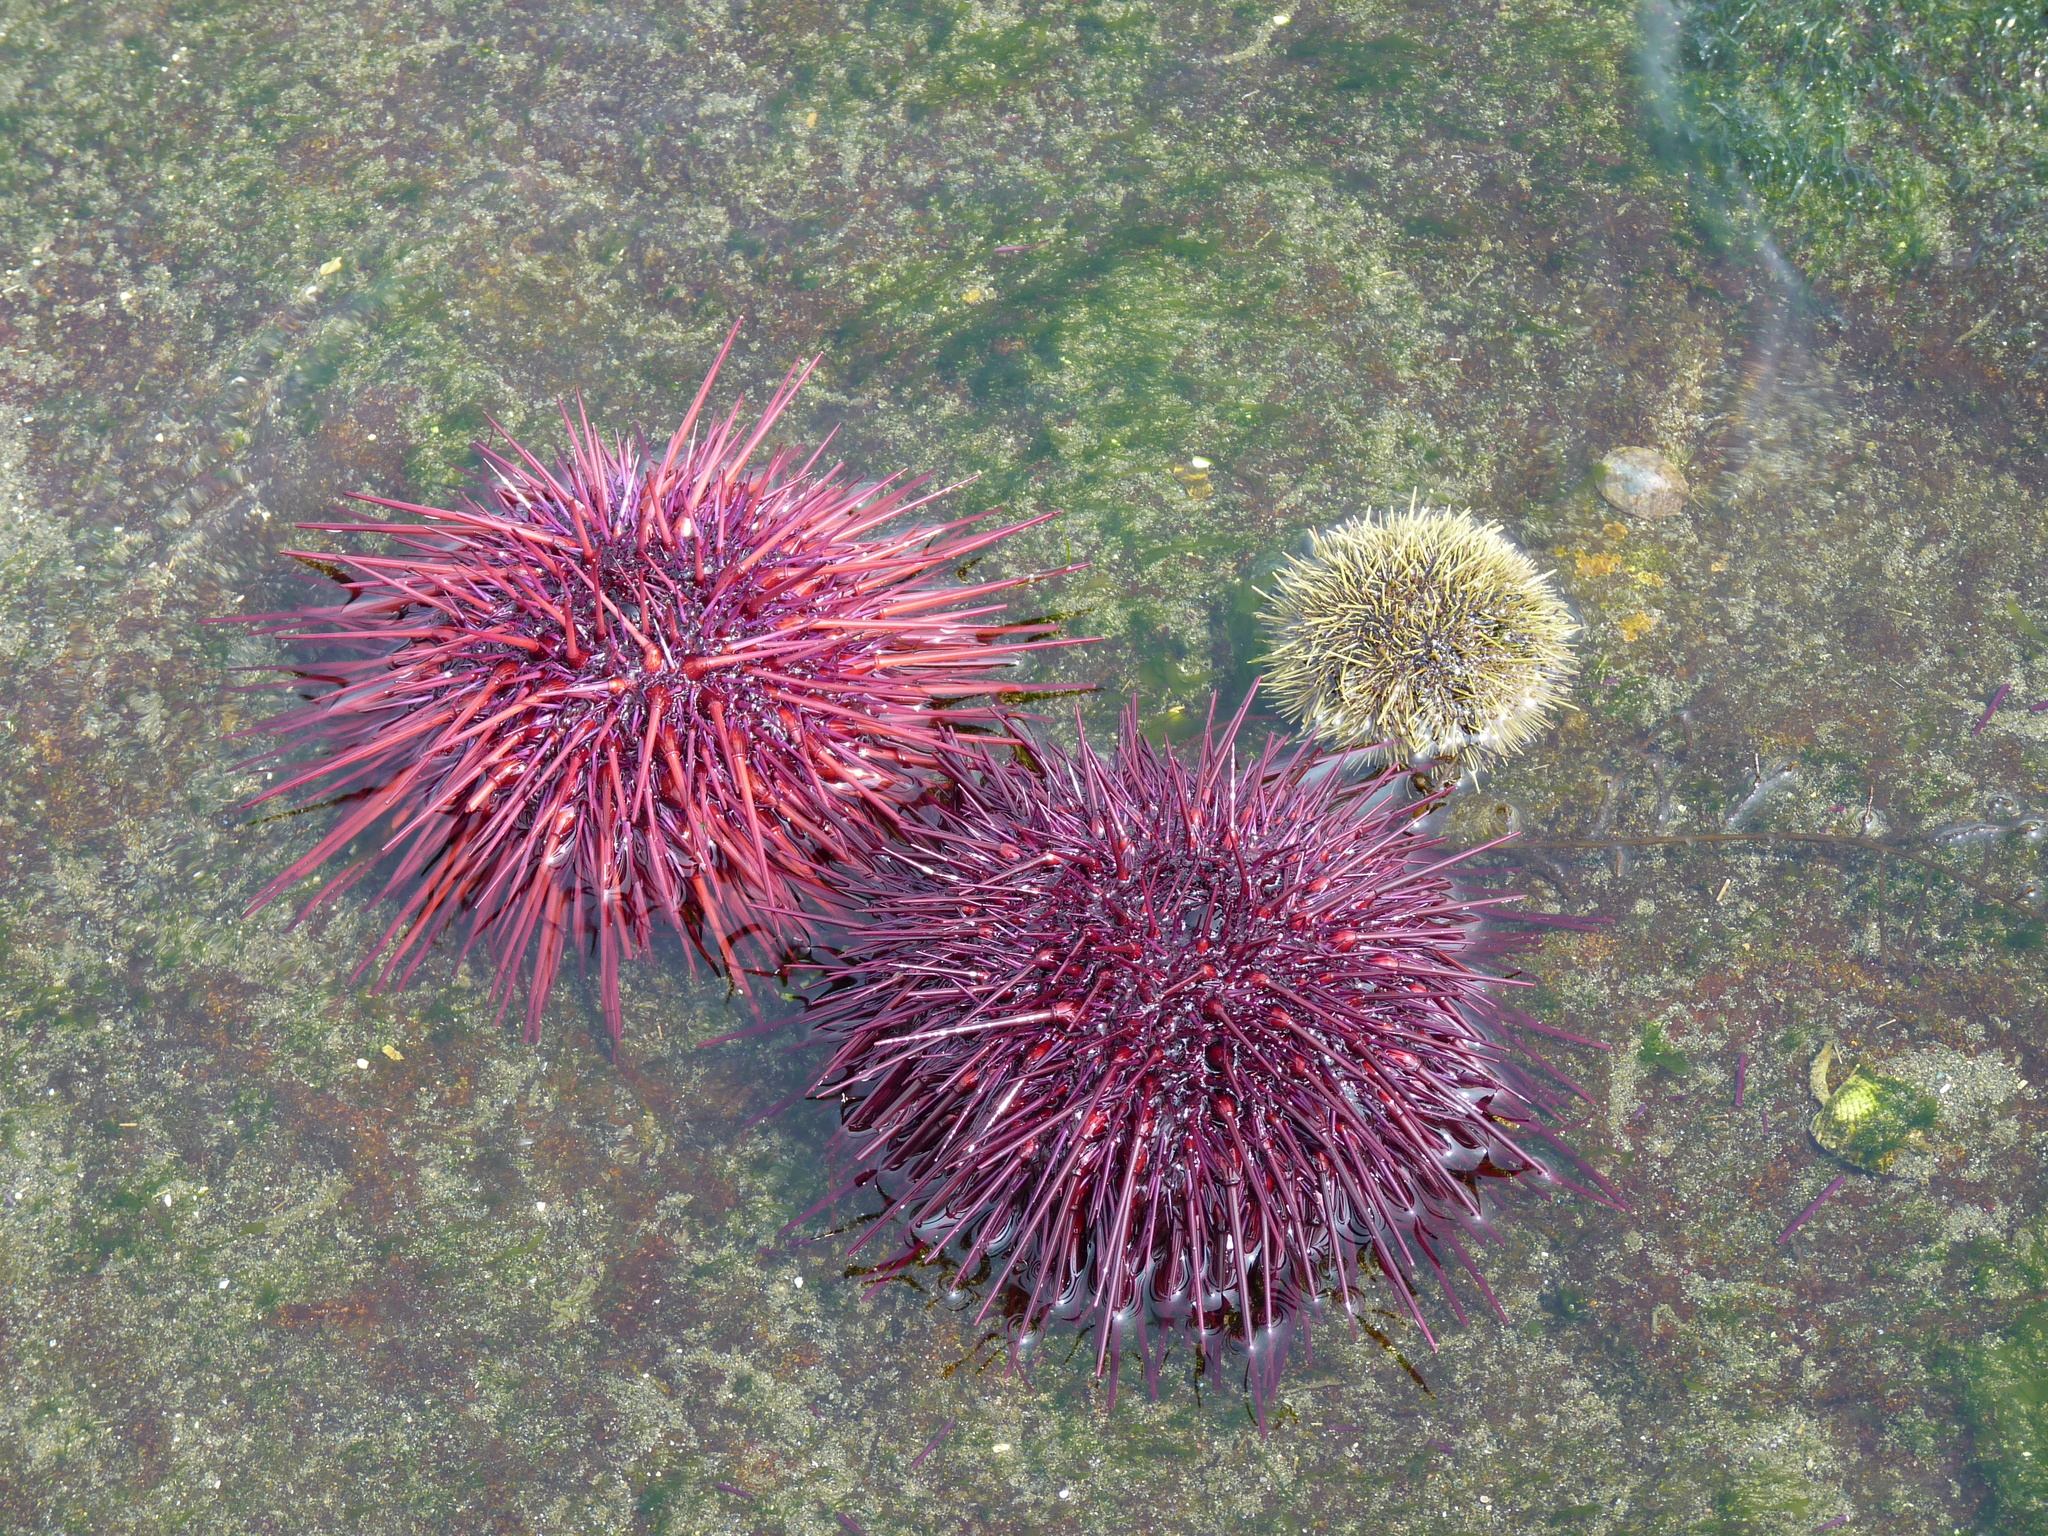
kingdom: Animalia
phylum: Echinodermata
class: Echinoidea
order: Camarodonta
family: Strongylocentrotidae
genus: Mesocentrotus
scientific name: Mesocentrotus franciscanus
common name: Red sea urchin
